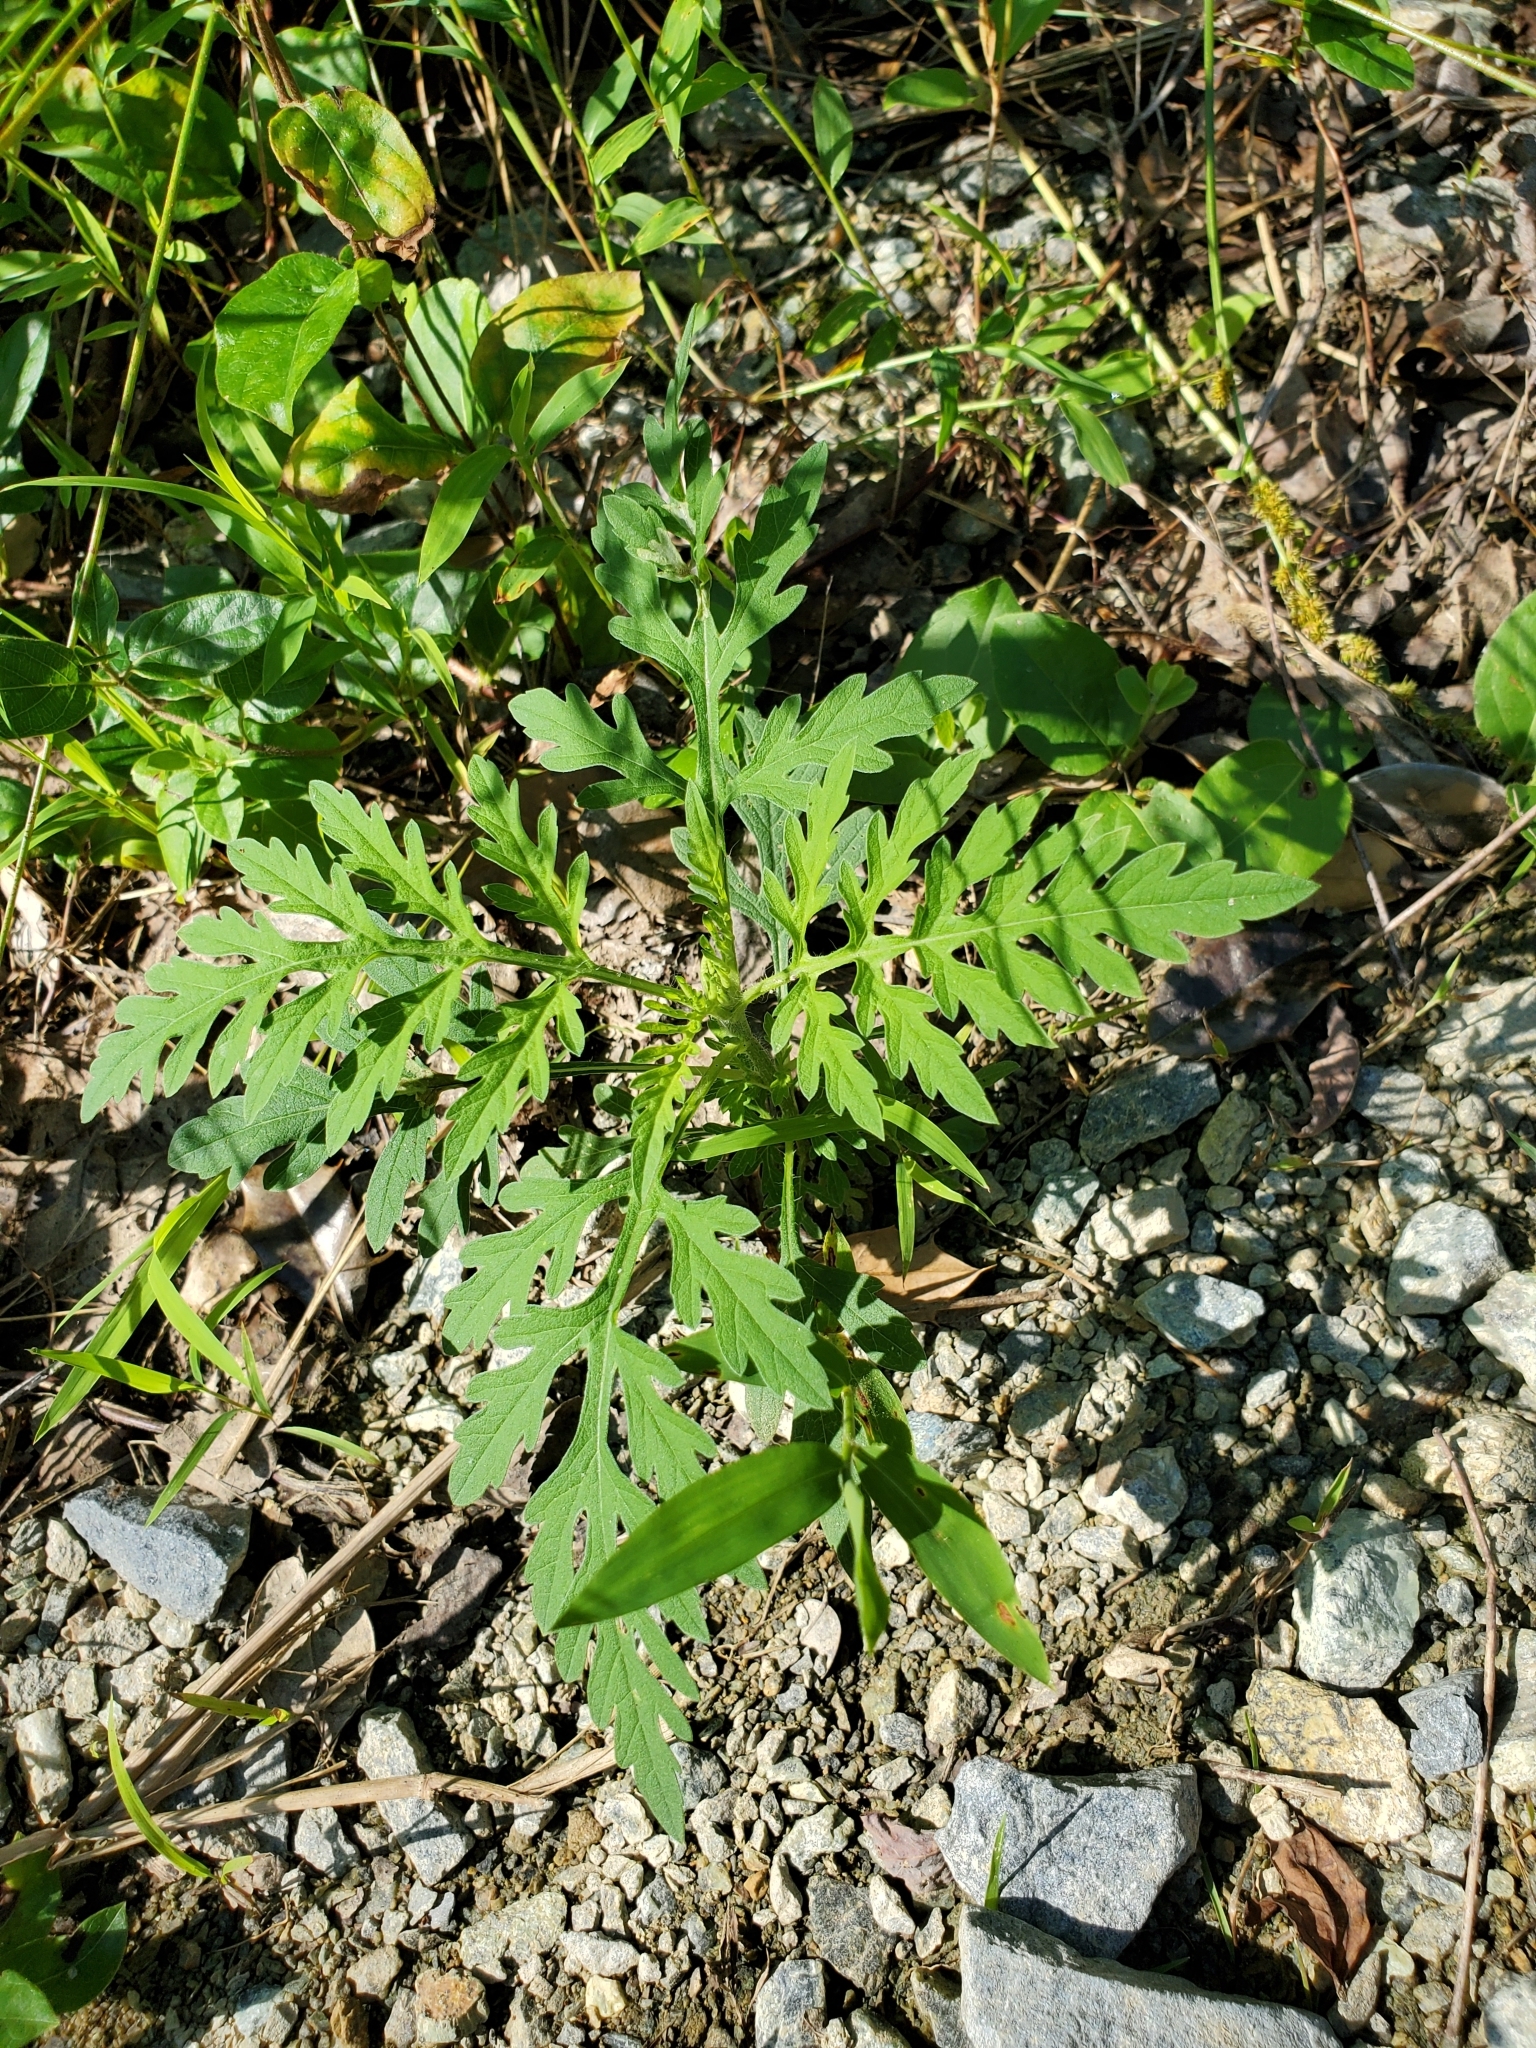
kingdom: Plantae
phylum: Tracheophyta
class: Magnoliopsida
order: Asterales
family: Asteraceae
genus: Ambrosia
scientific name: Ambrosia artemisiifolia
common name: Annual ragweed
